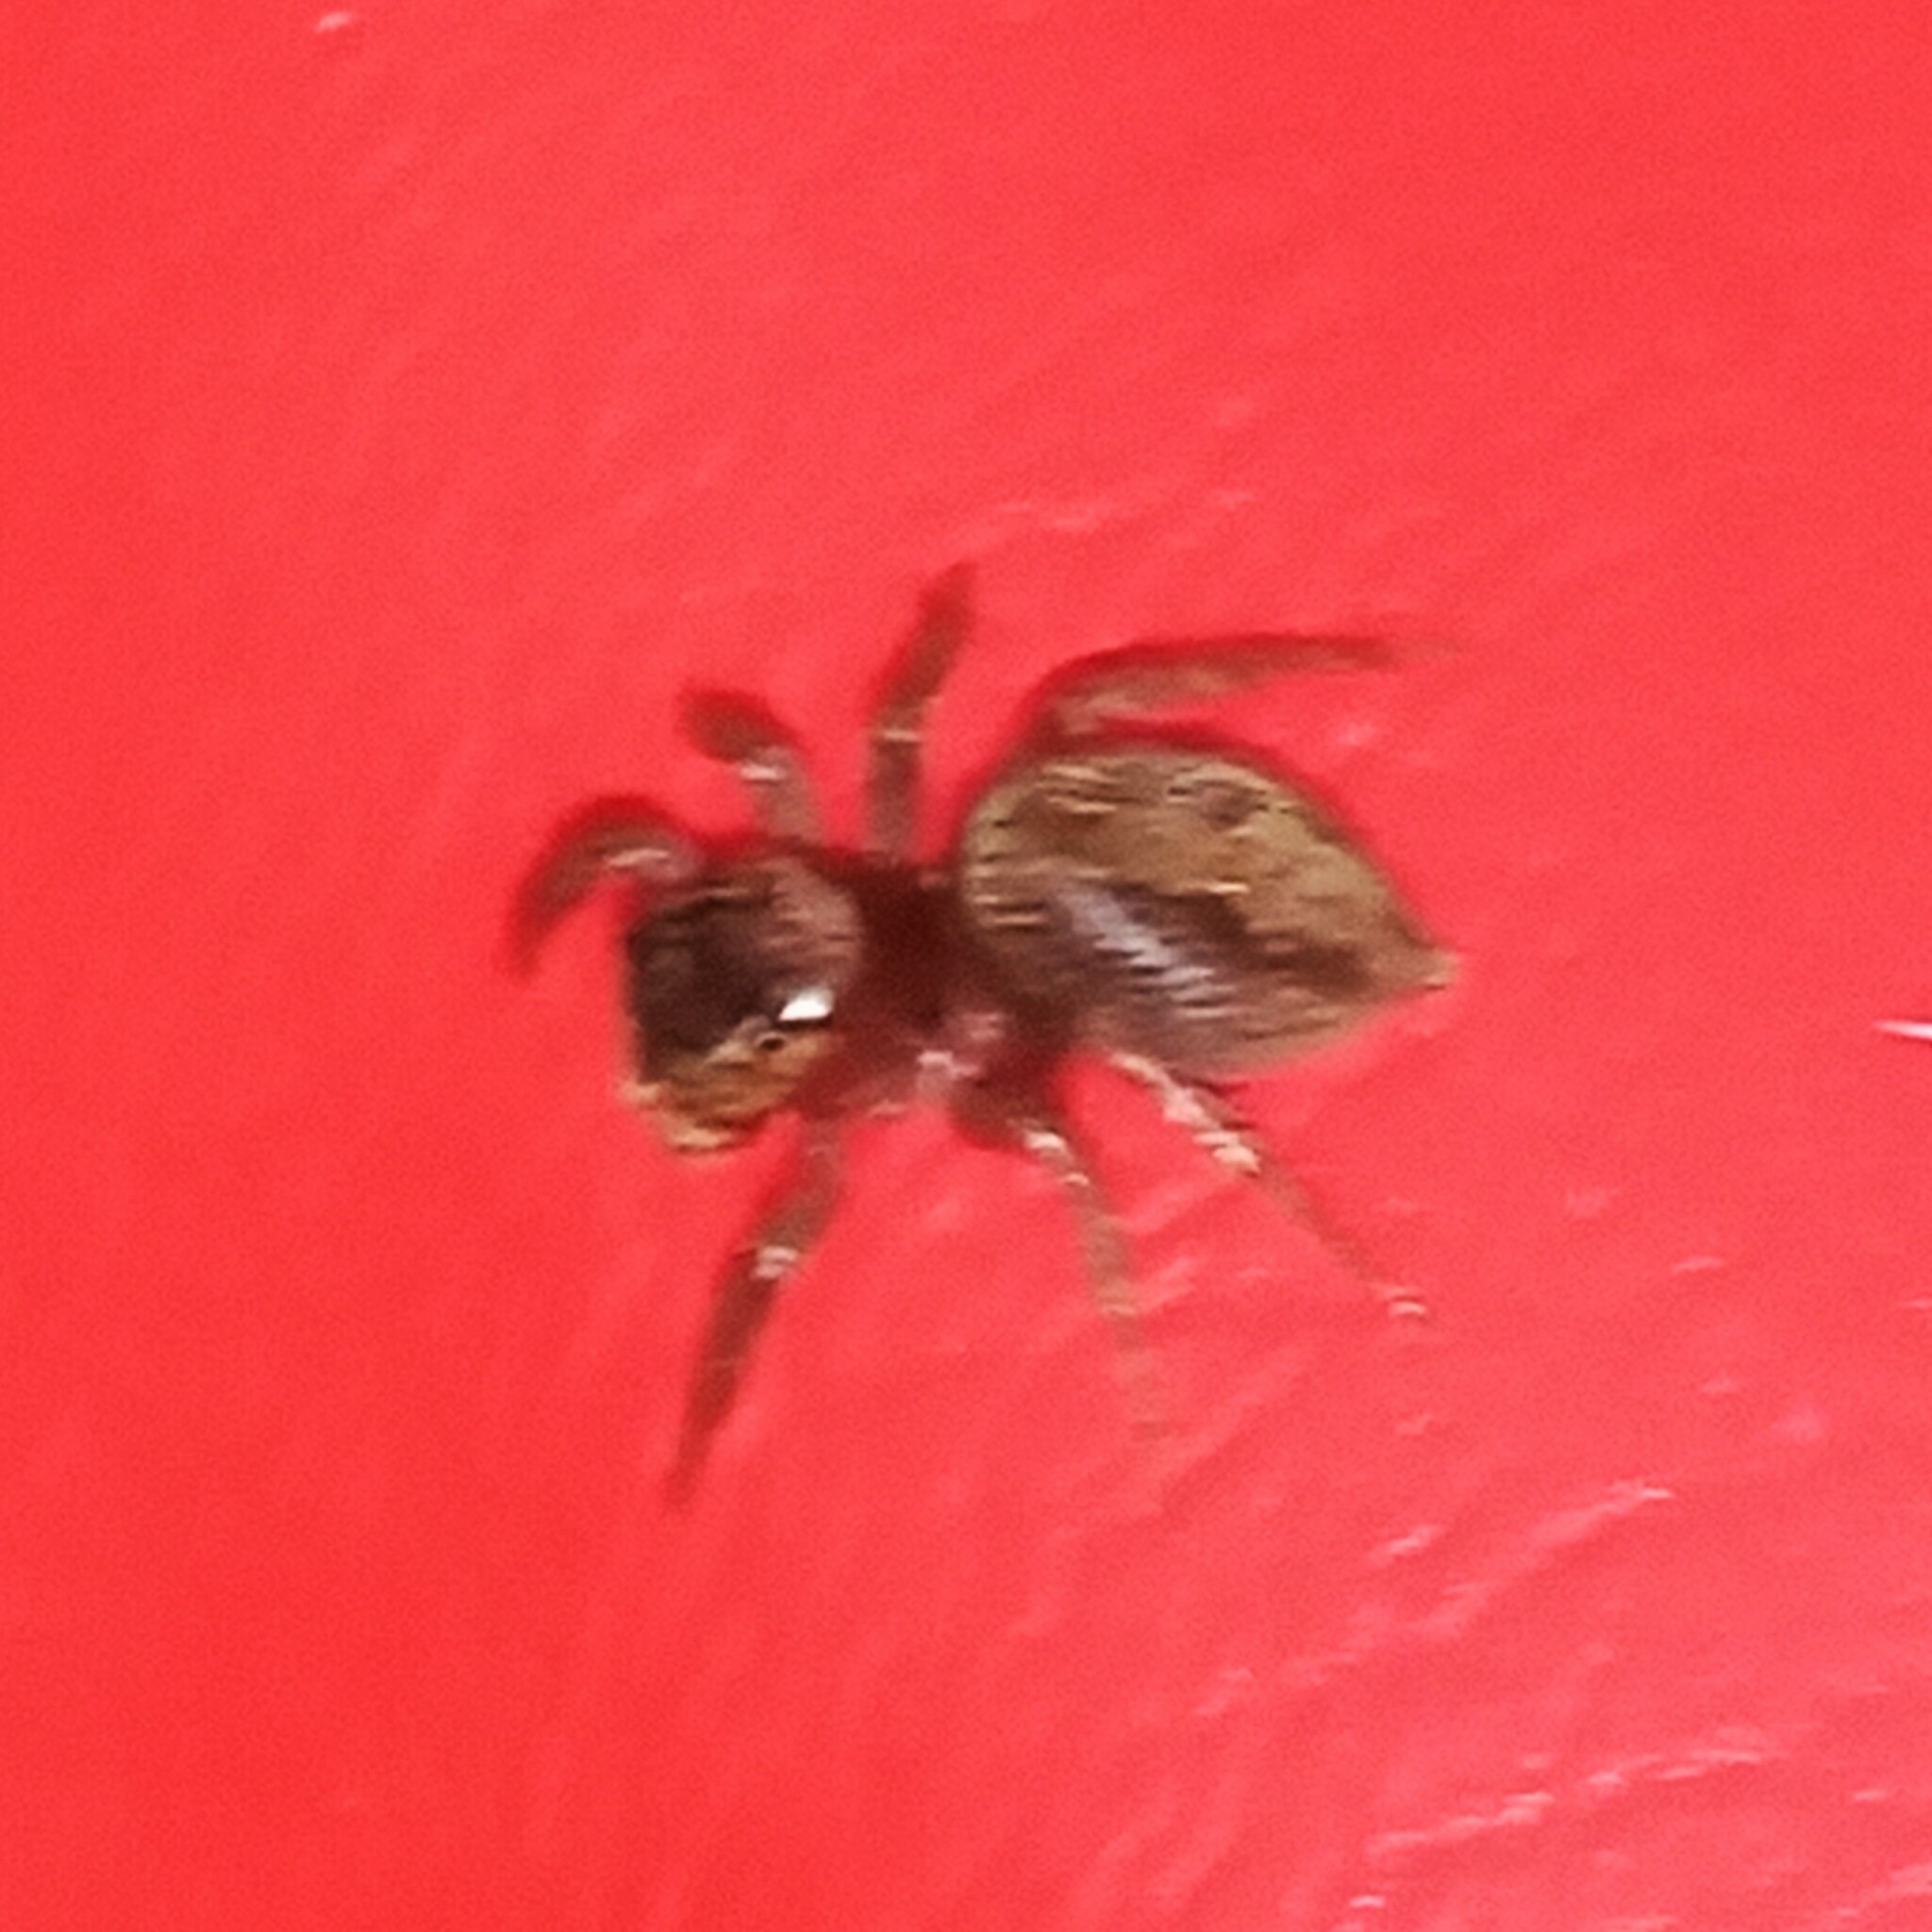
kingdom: Animalia
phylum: Arthropoda
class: Arachnida
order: Araneae
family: Salticidae
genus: Hasarius
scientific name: Hasarius adansoni
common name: Jumping spider
